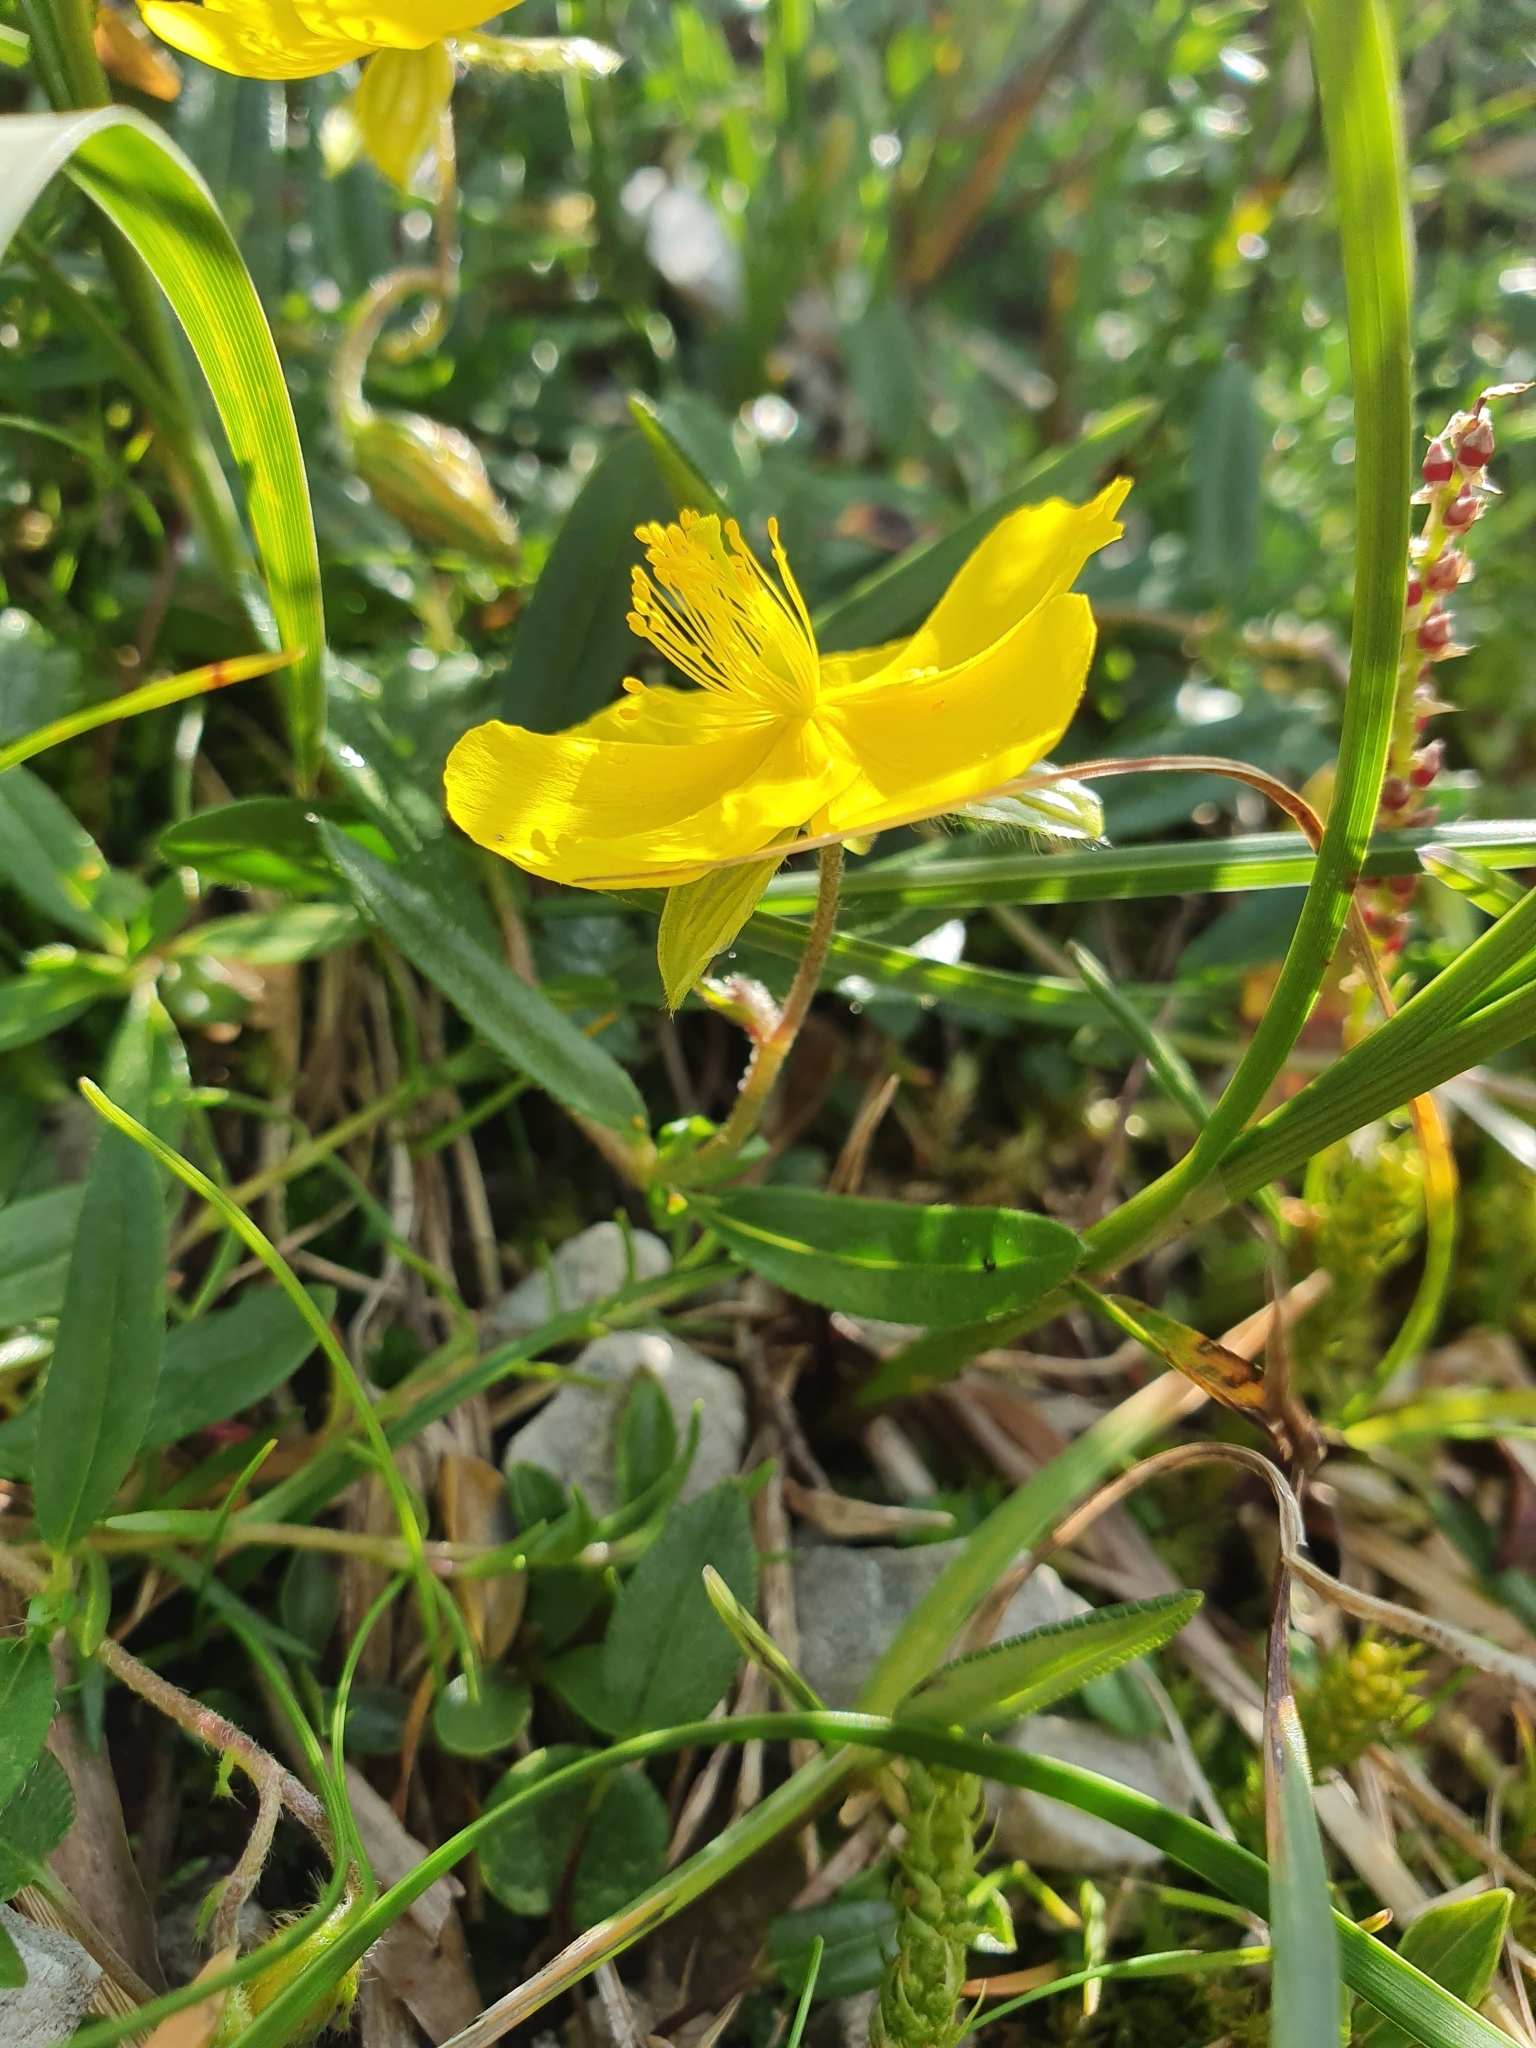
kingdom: Plantae
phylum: Tracheophyta
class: Magnoliopsida
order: Malvales
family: Cistaceae
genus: Helianthemum
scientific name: Helianthemum nummularium
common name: Common rock-rose
